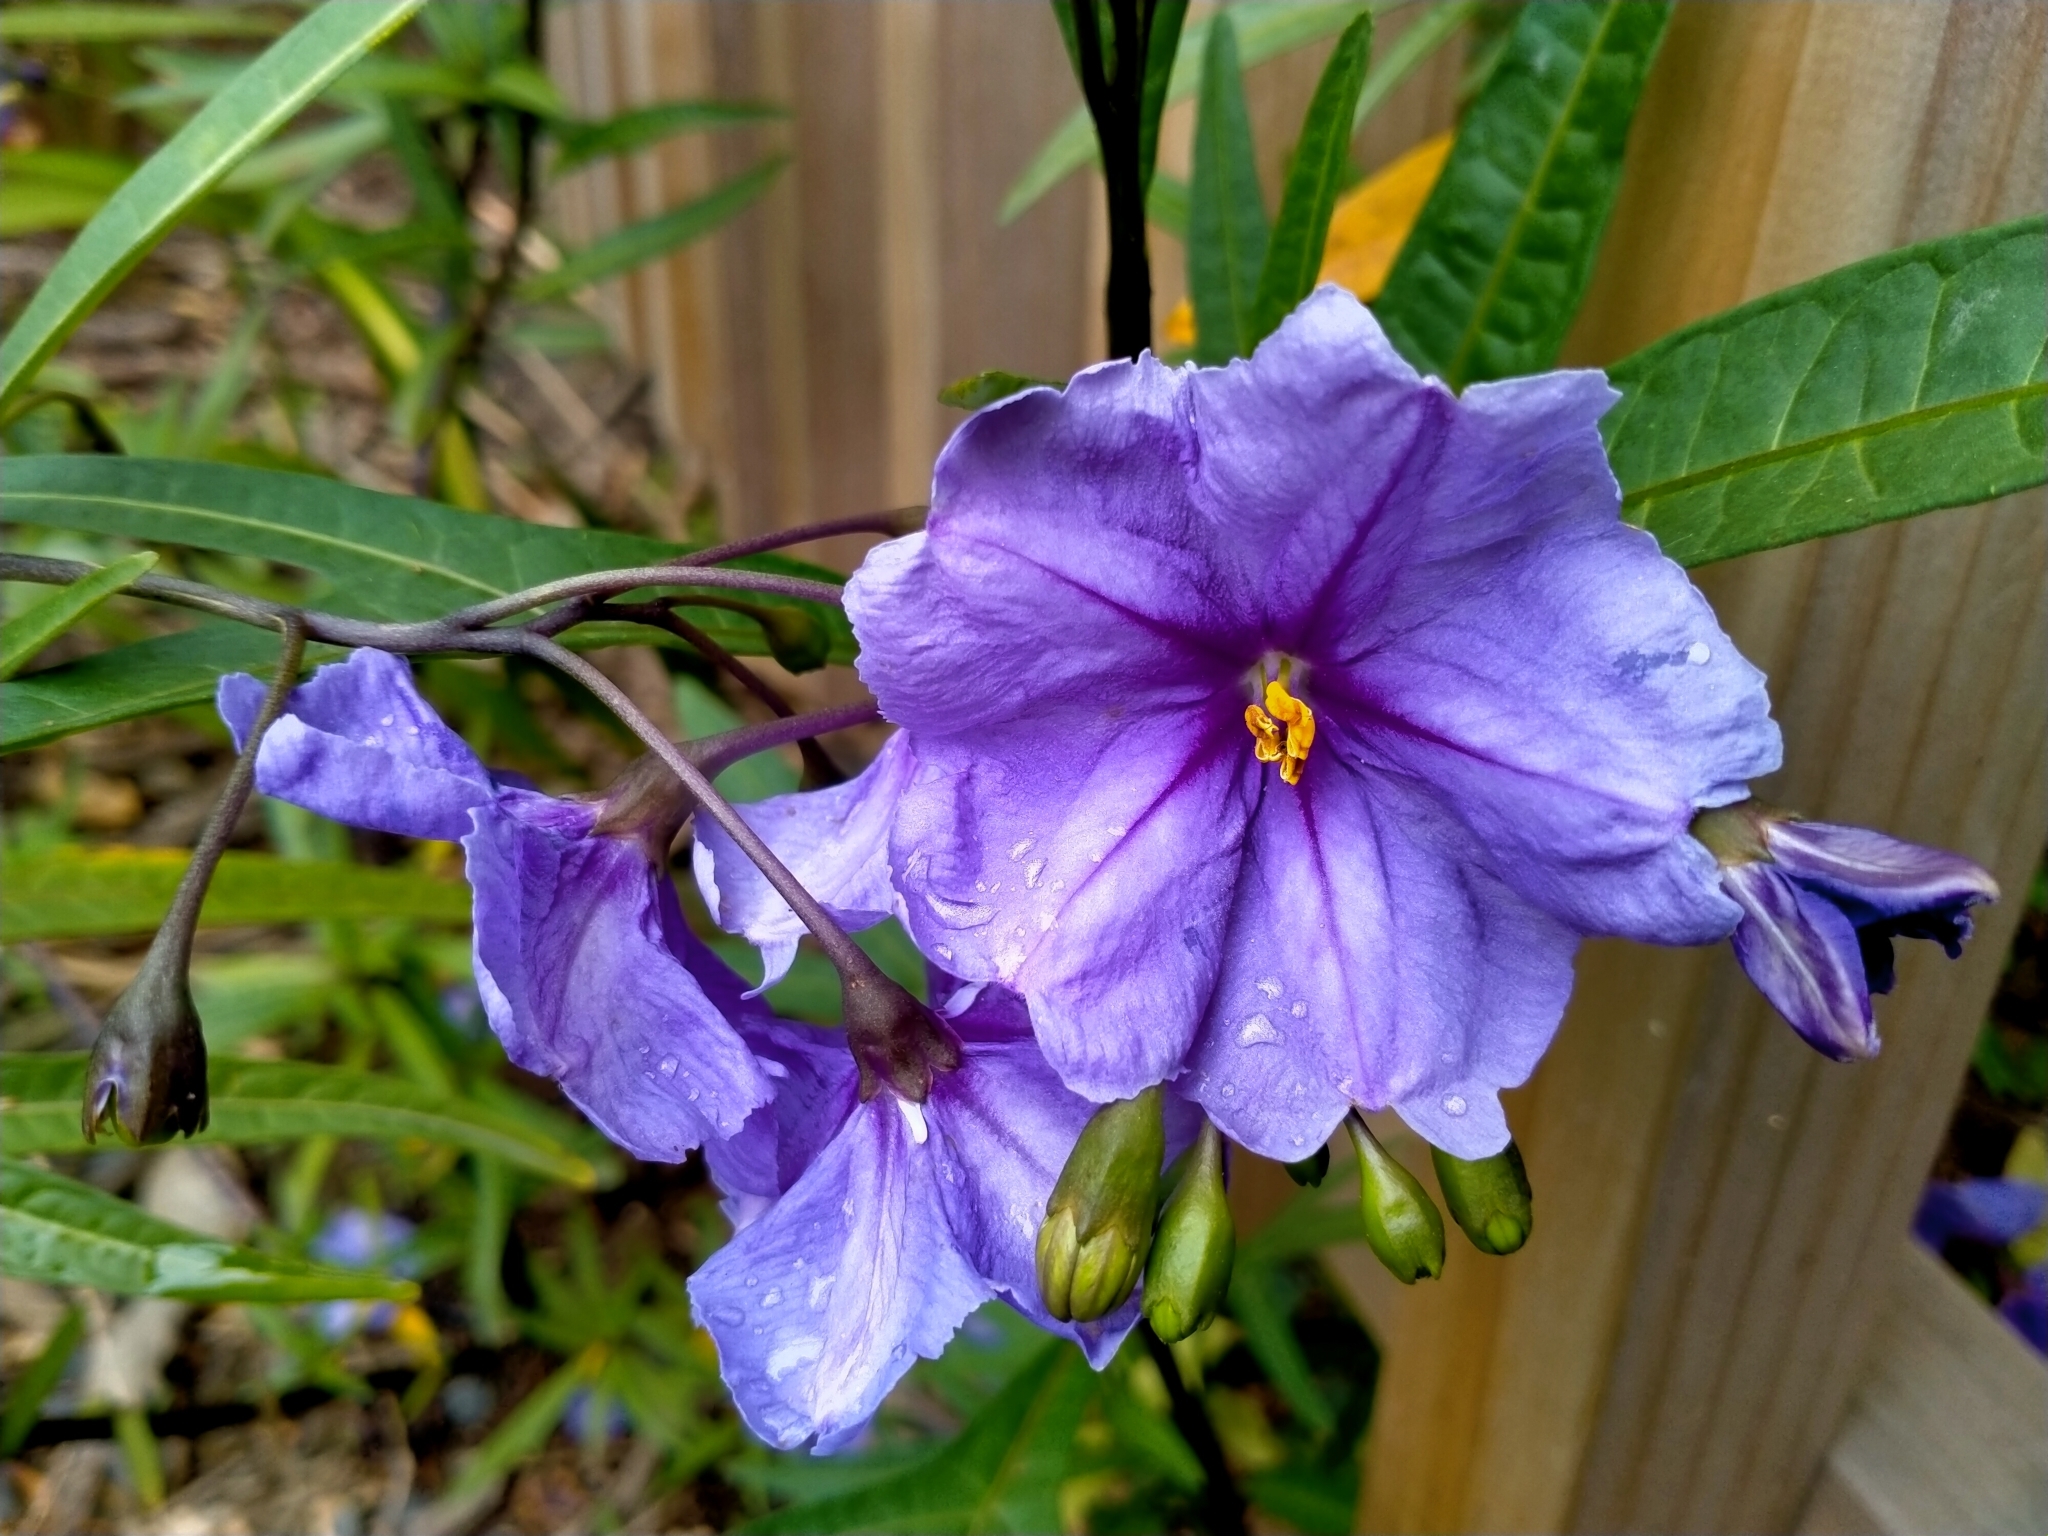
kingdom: Plantae
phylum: Tracheophyta
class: Magnoliopsida
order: Solanales
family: Solanaceae
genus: Solanum
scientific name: Solanum laciniatum
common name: Kangaroo-apple
